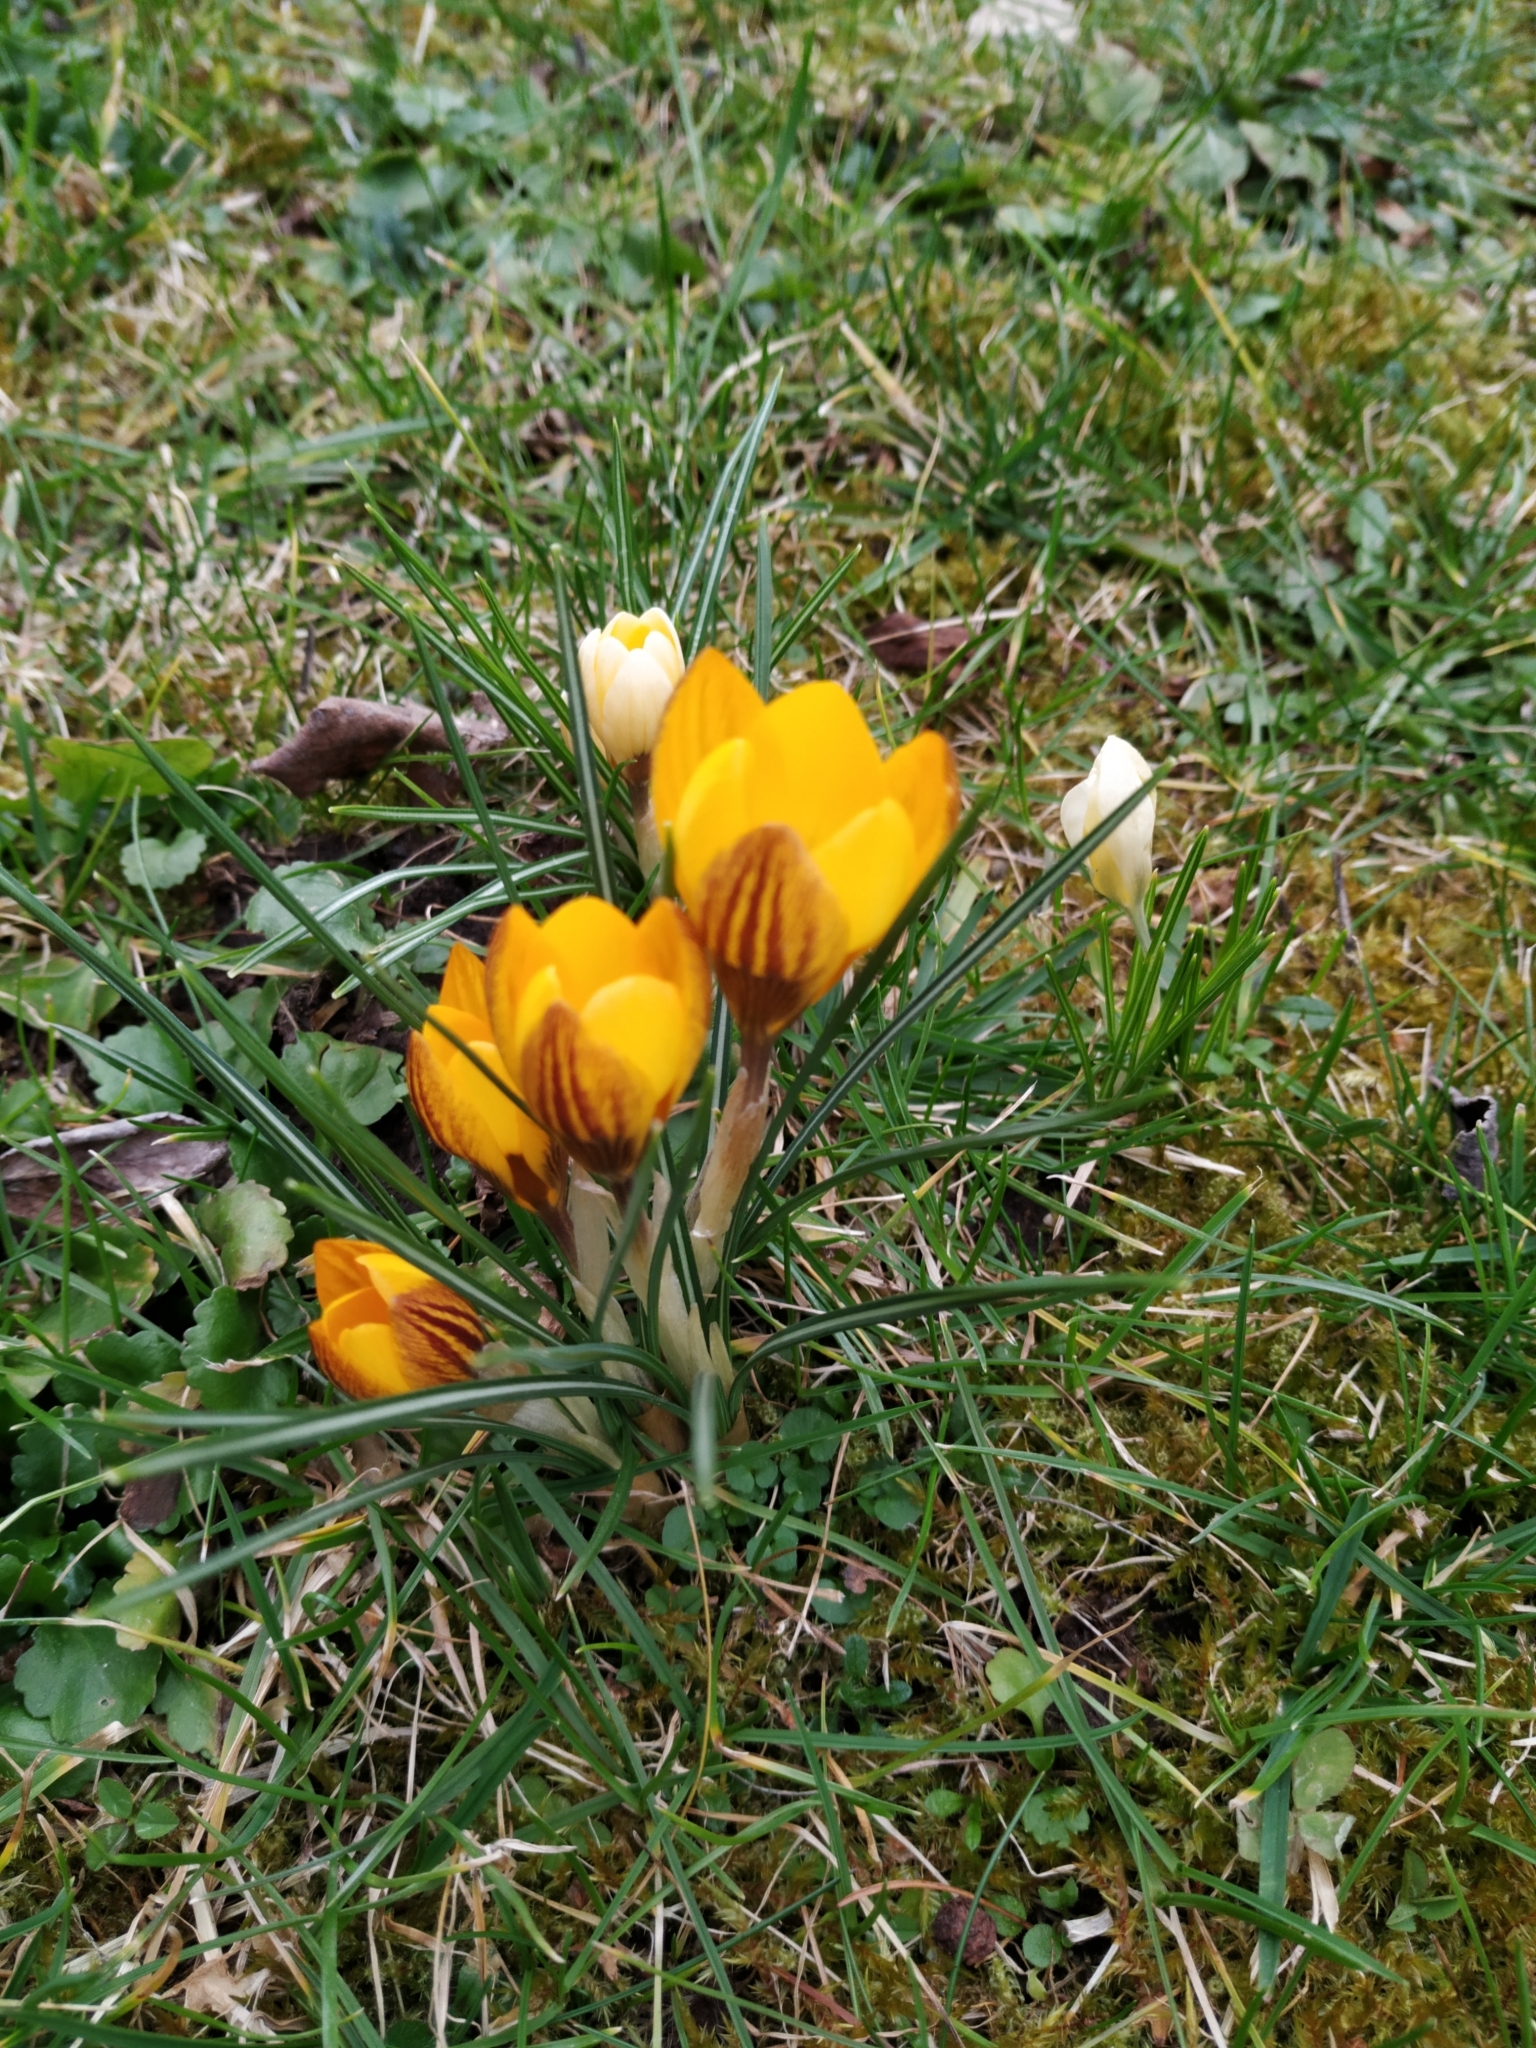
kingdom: Plantae
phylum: Tracheophyta
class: Liliopsida
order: Asparagales
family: Iridaceae
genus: Crocus
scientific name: Crocus chrysanthus
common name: Golden crocus
